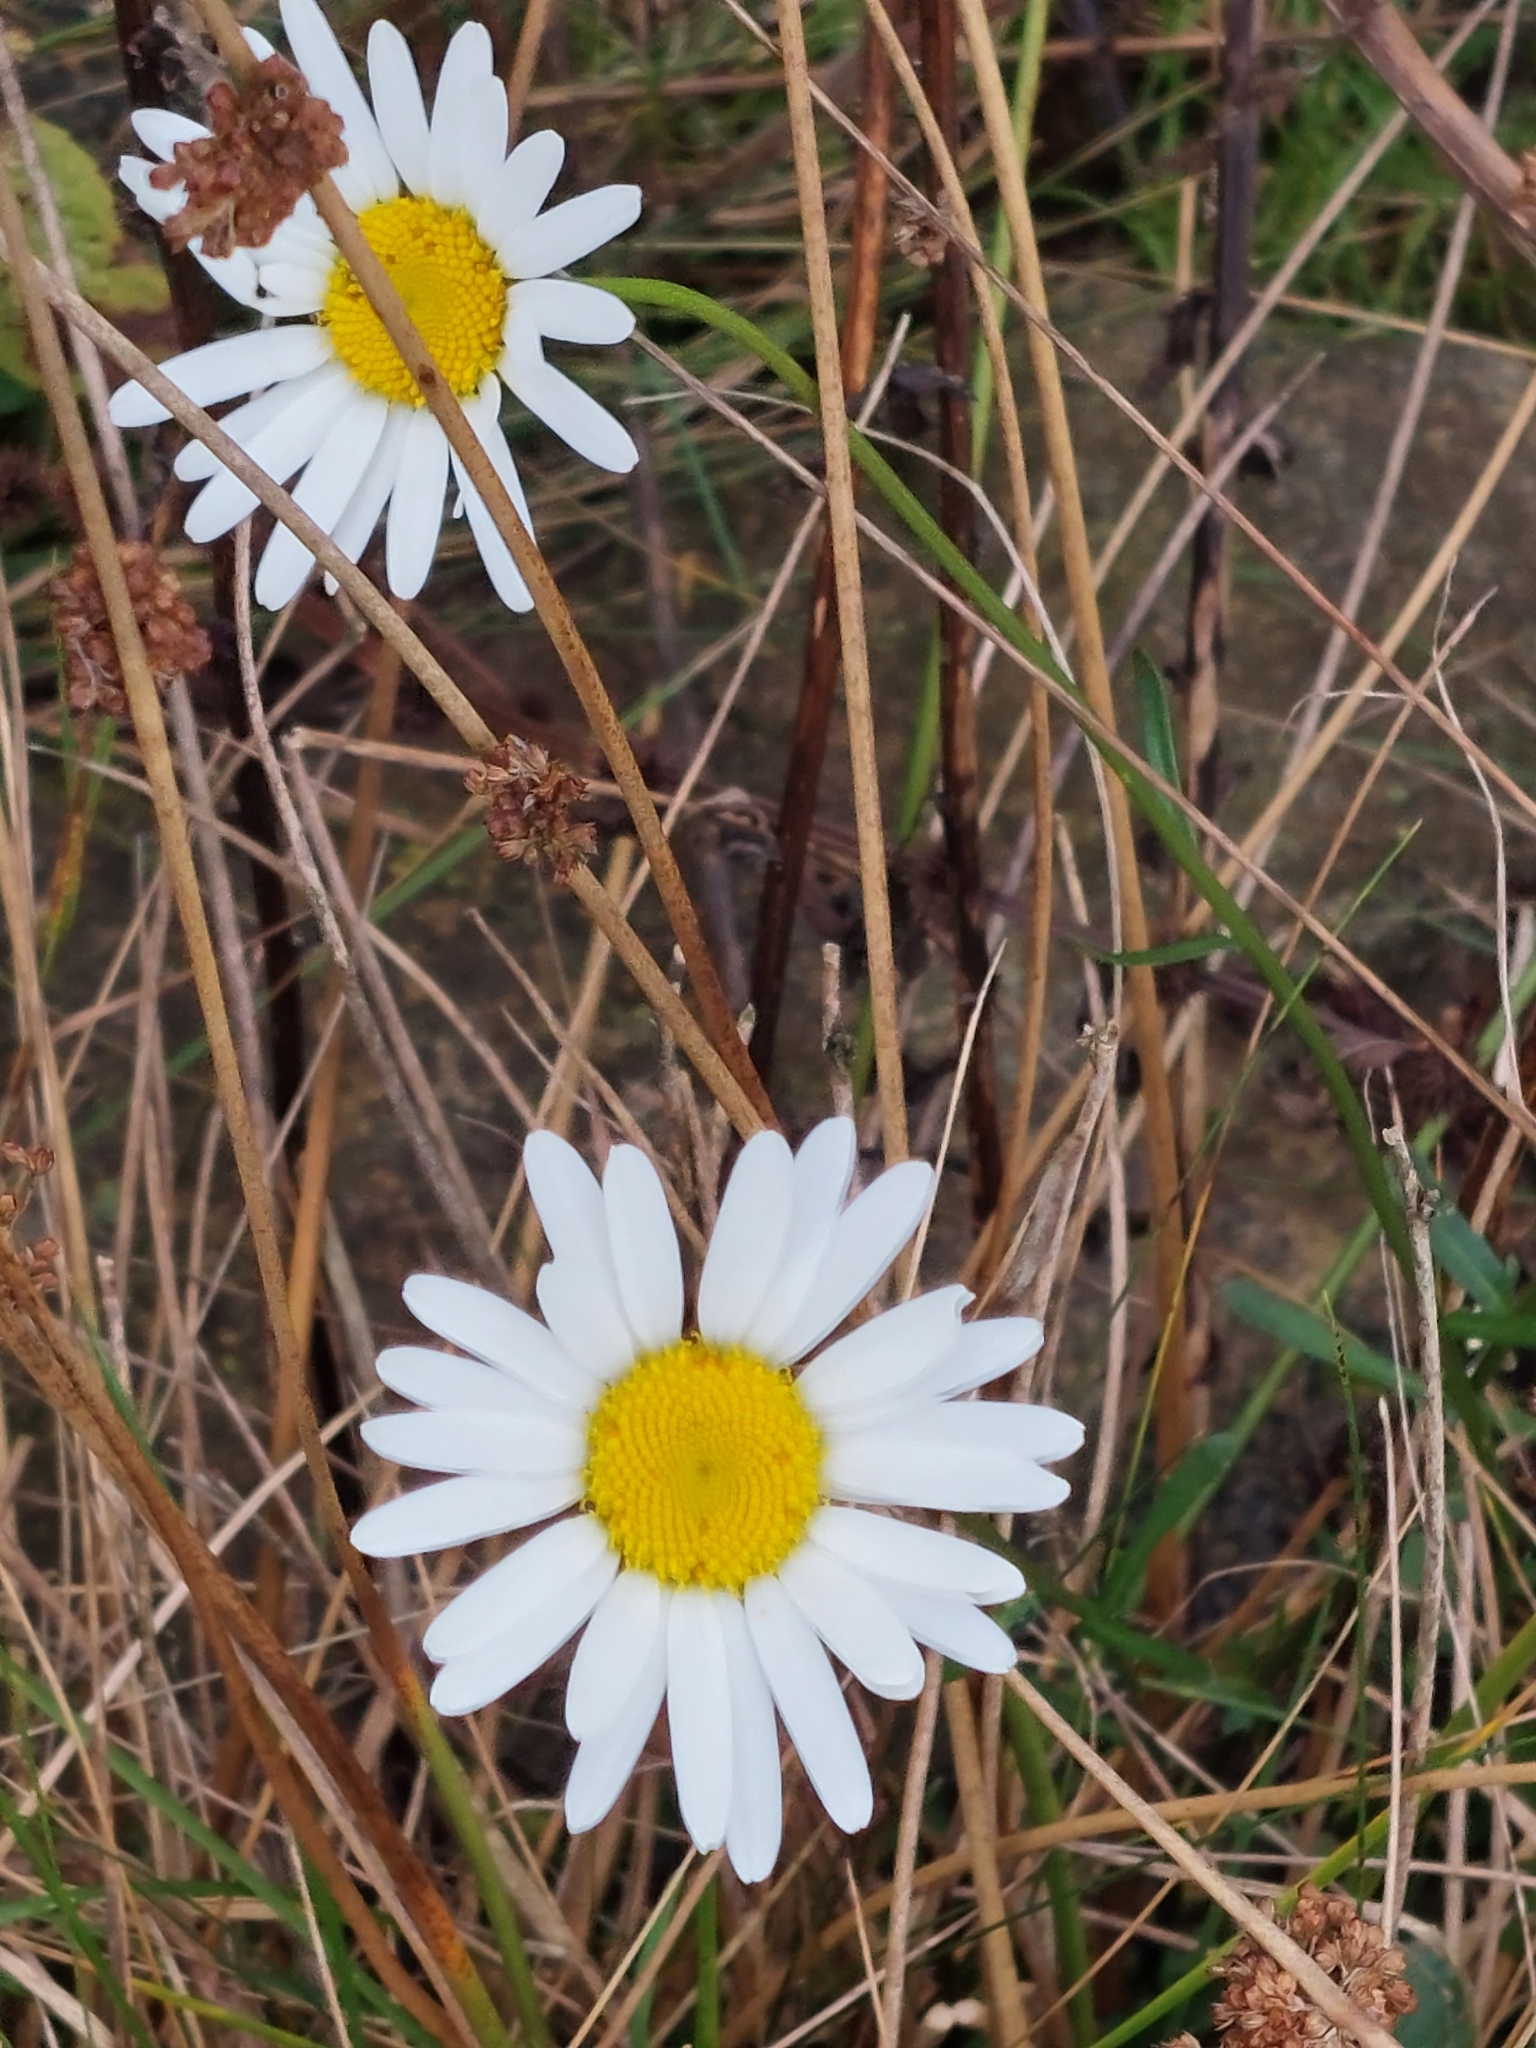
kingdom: Plantae
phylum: Tracheophyta
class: Magnoliopsida
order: Asterales
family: Asteraceae
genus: Leucanthemum
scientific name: Leucanthemum vulgare
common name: Oxeye daisy
